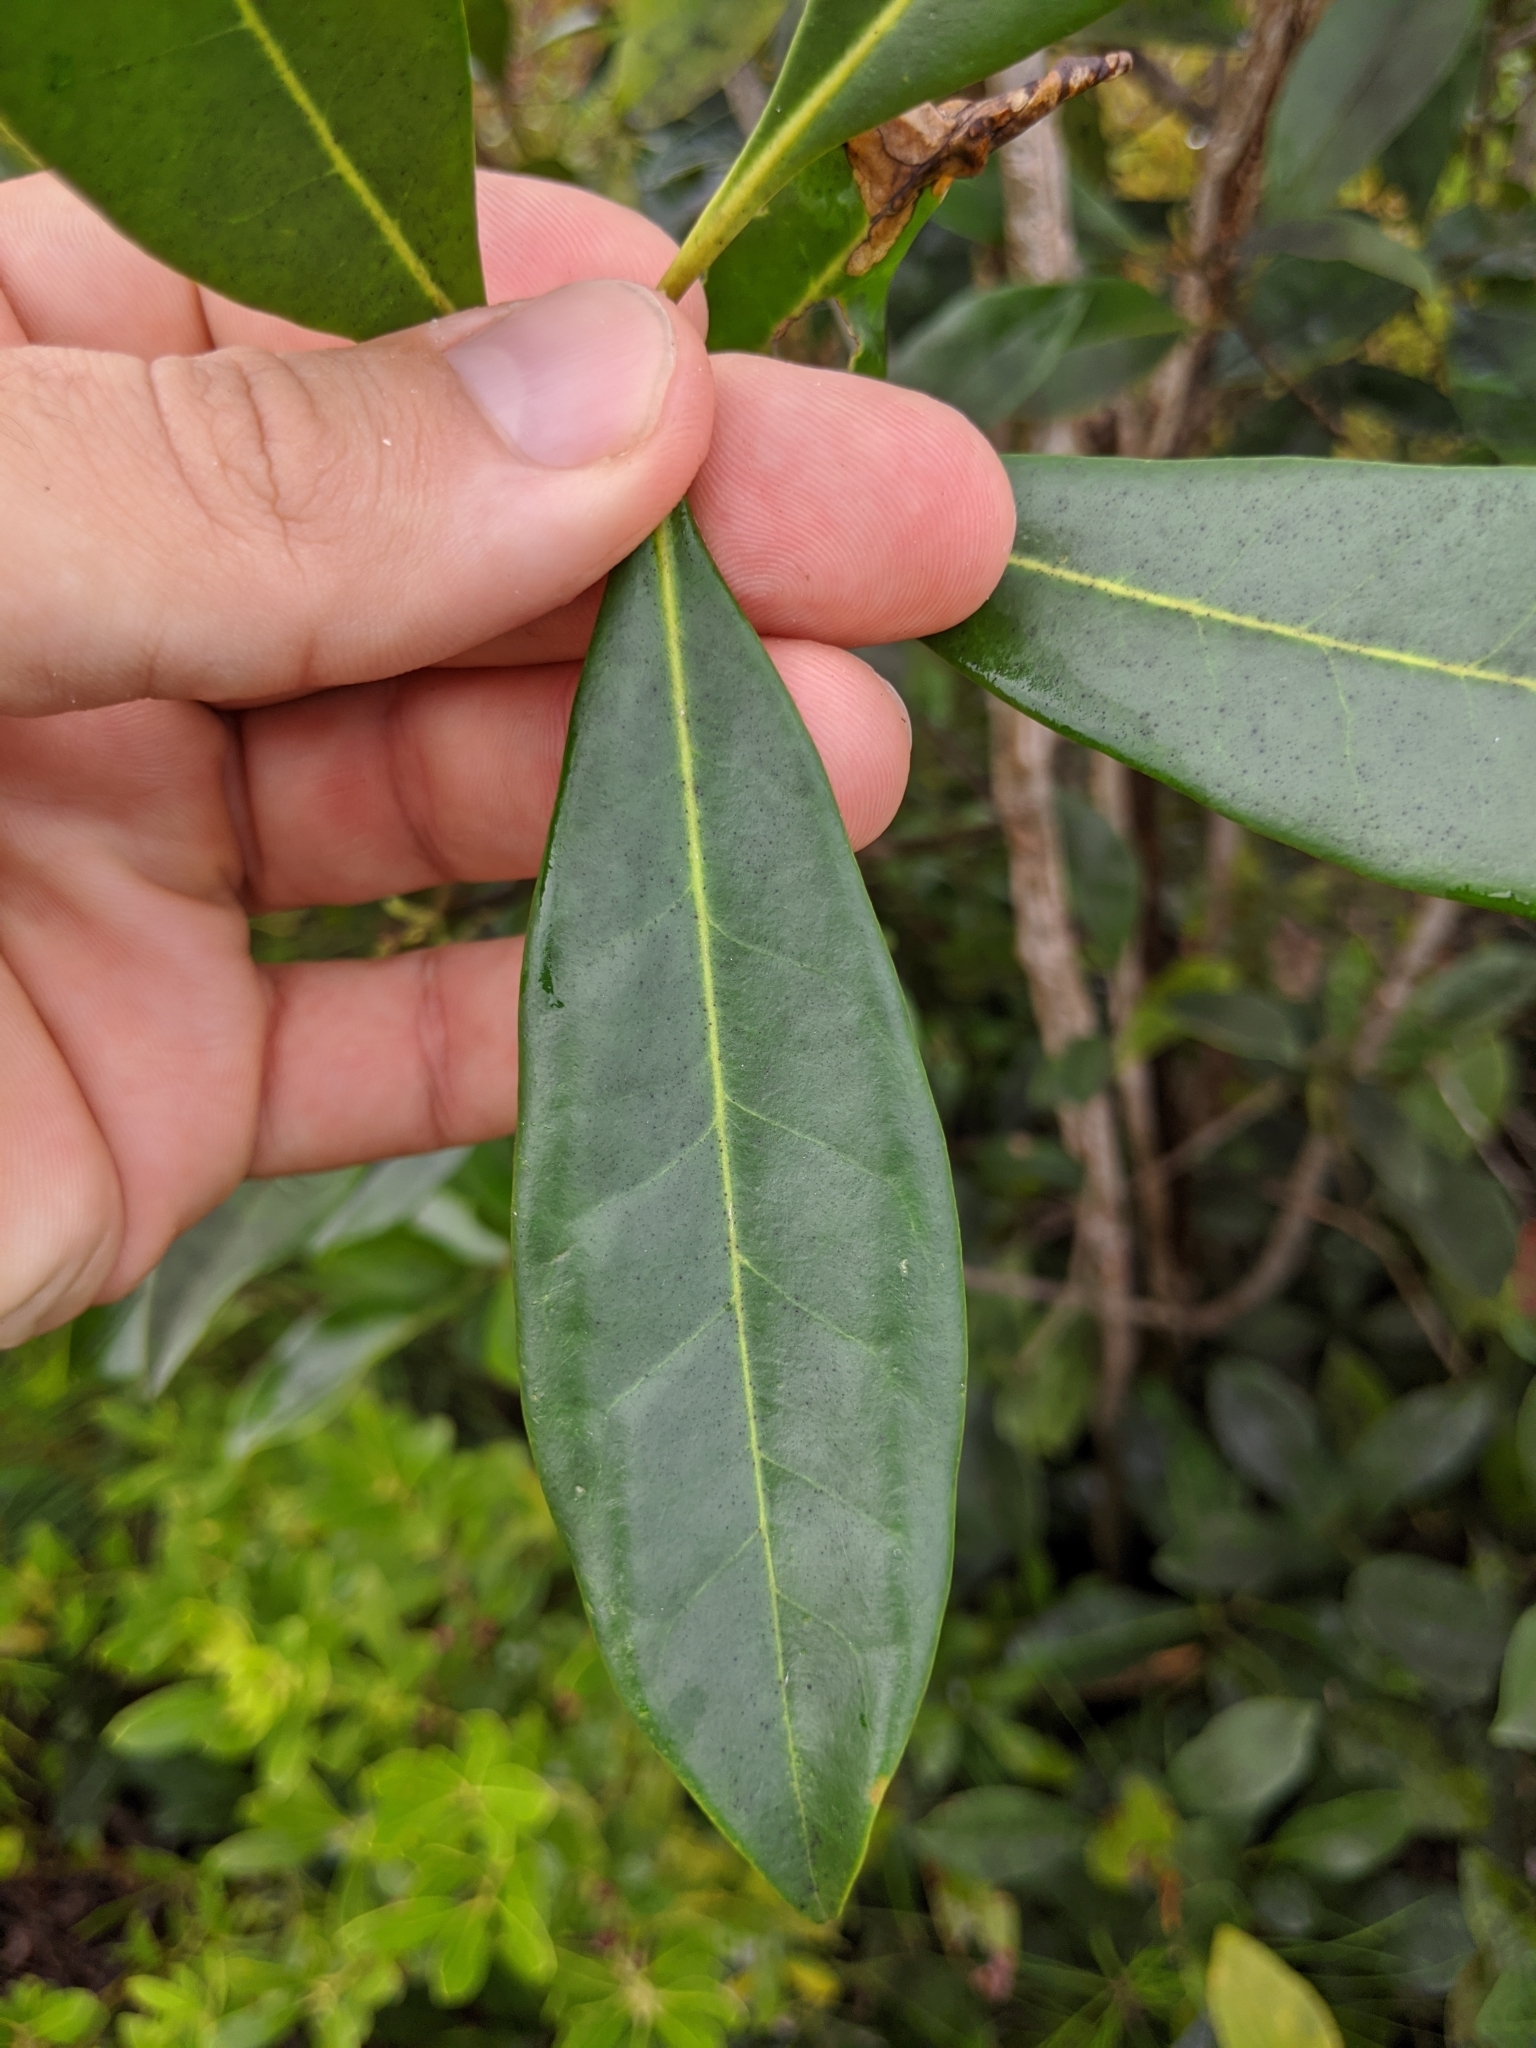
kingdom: Plantae
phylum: Tracheophyta
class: Magnoliopsida
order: Lamiales
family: Oleaceae
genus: Cartrema
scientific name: Cartrema americana
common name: Devilwood
